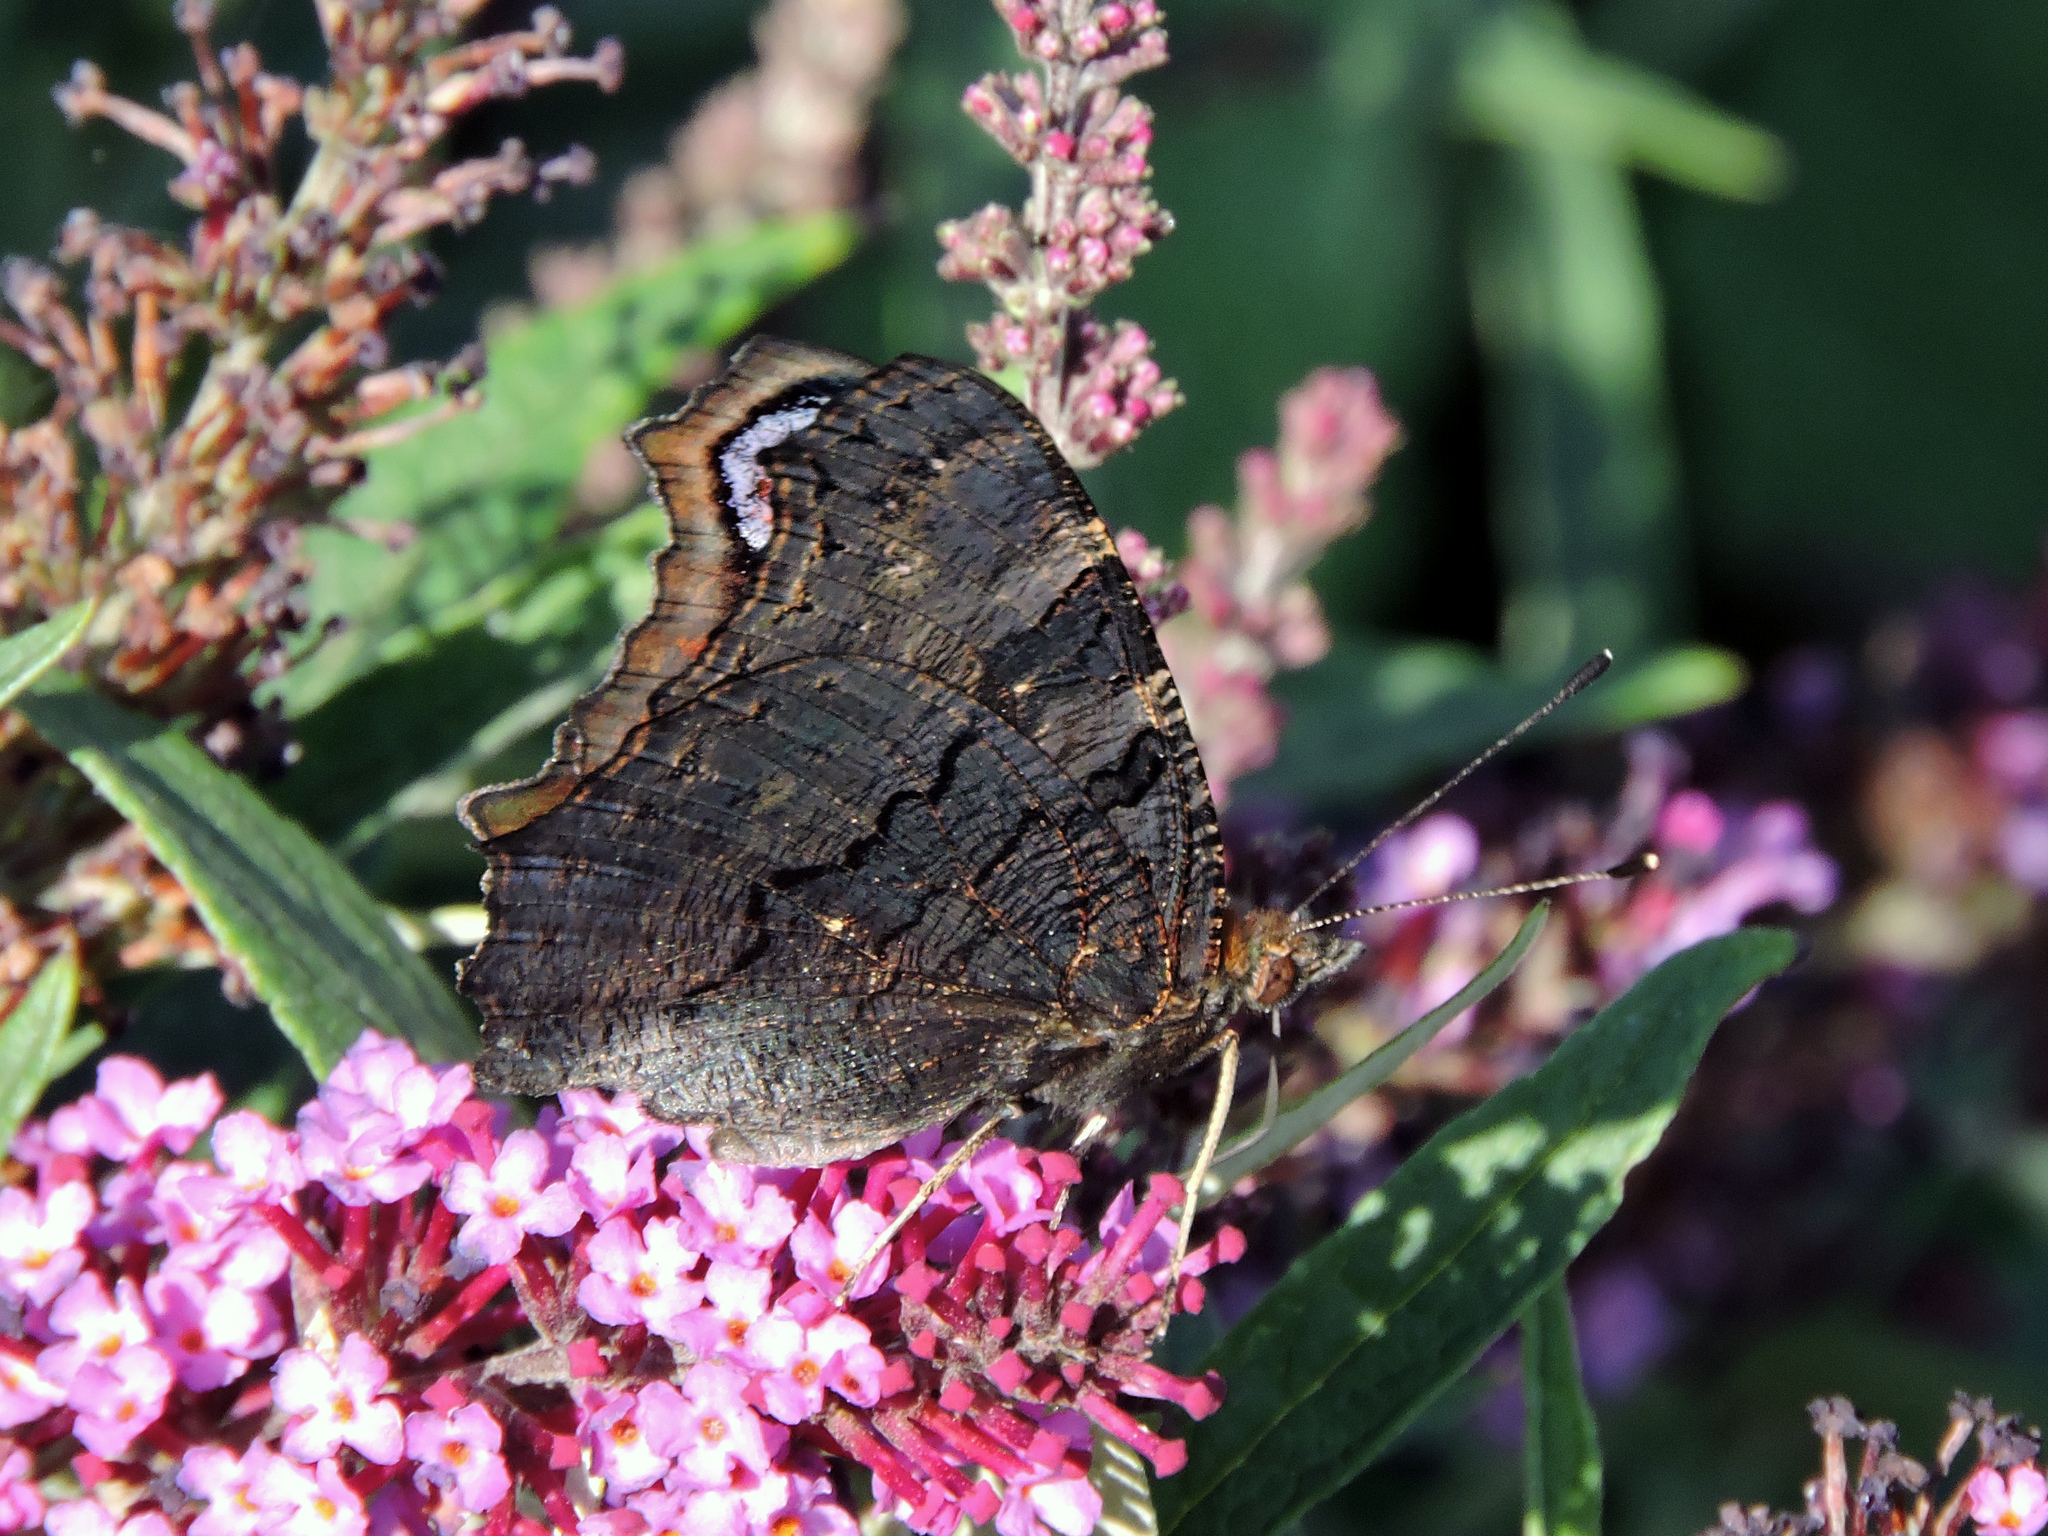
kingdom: Animalia
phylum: Arthropoda
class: Insecta
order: Lepidoptera
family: Nymphalidae
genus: Aglais
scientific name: Aglais io
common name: Peacock
